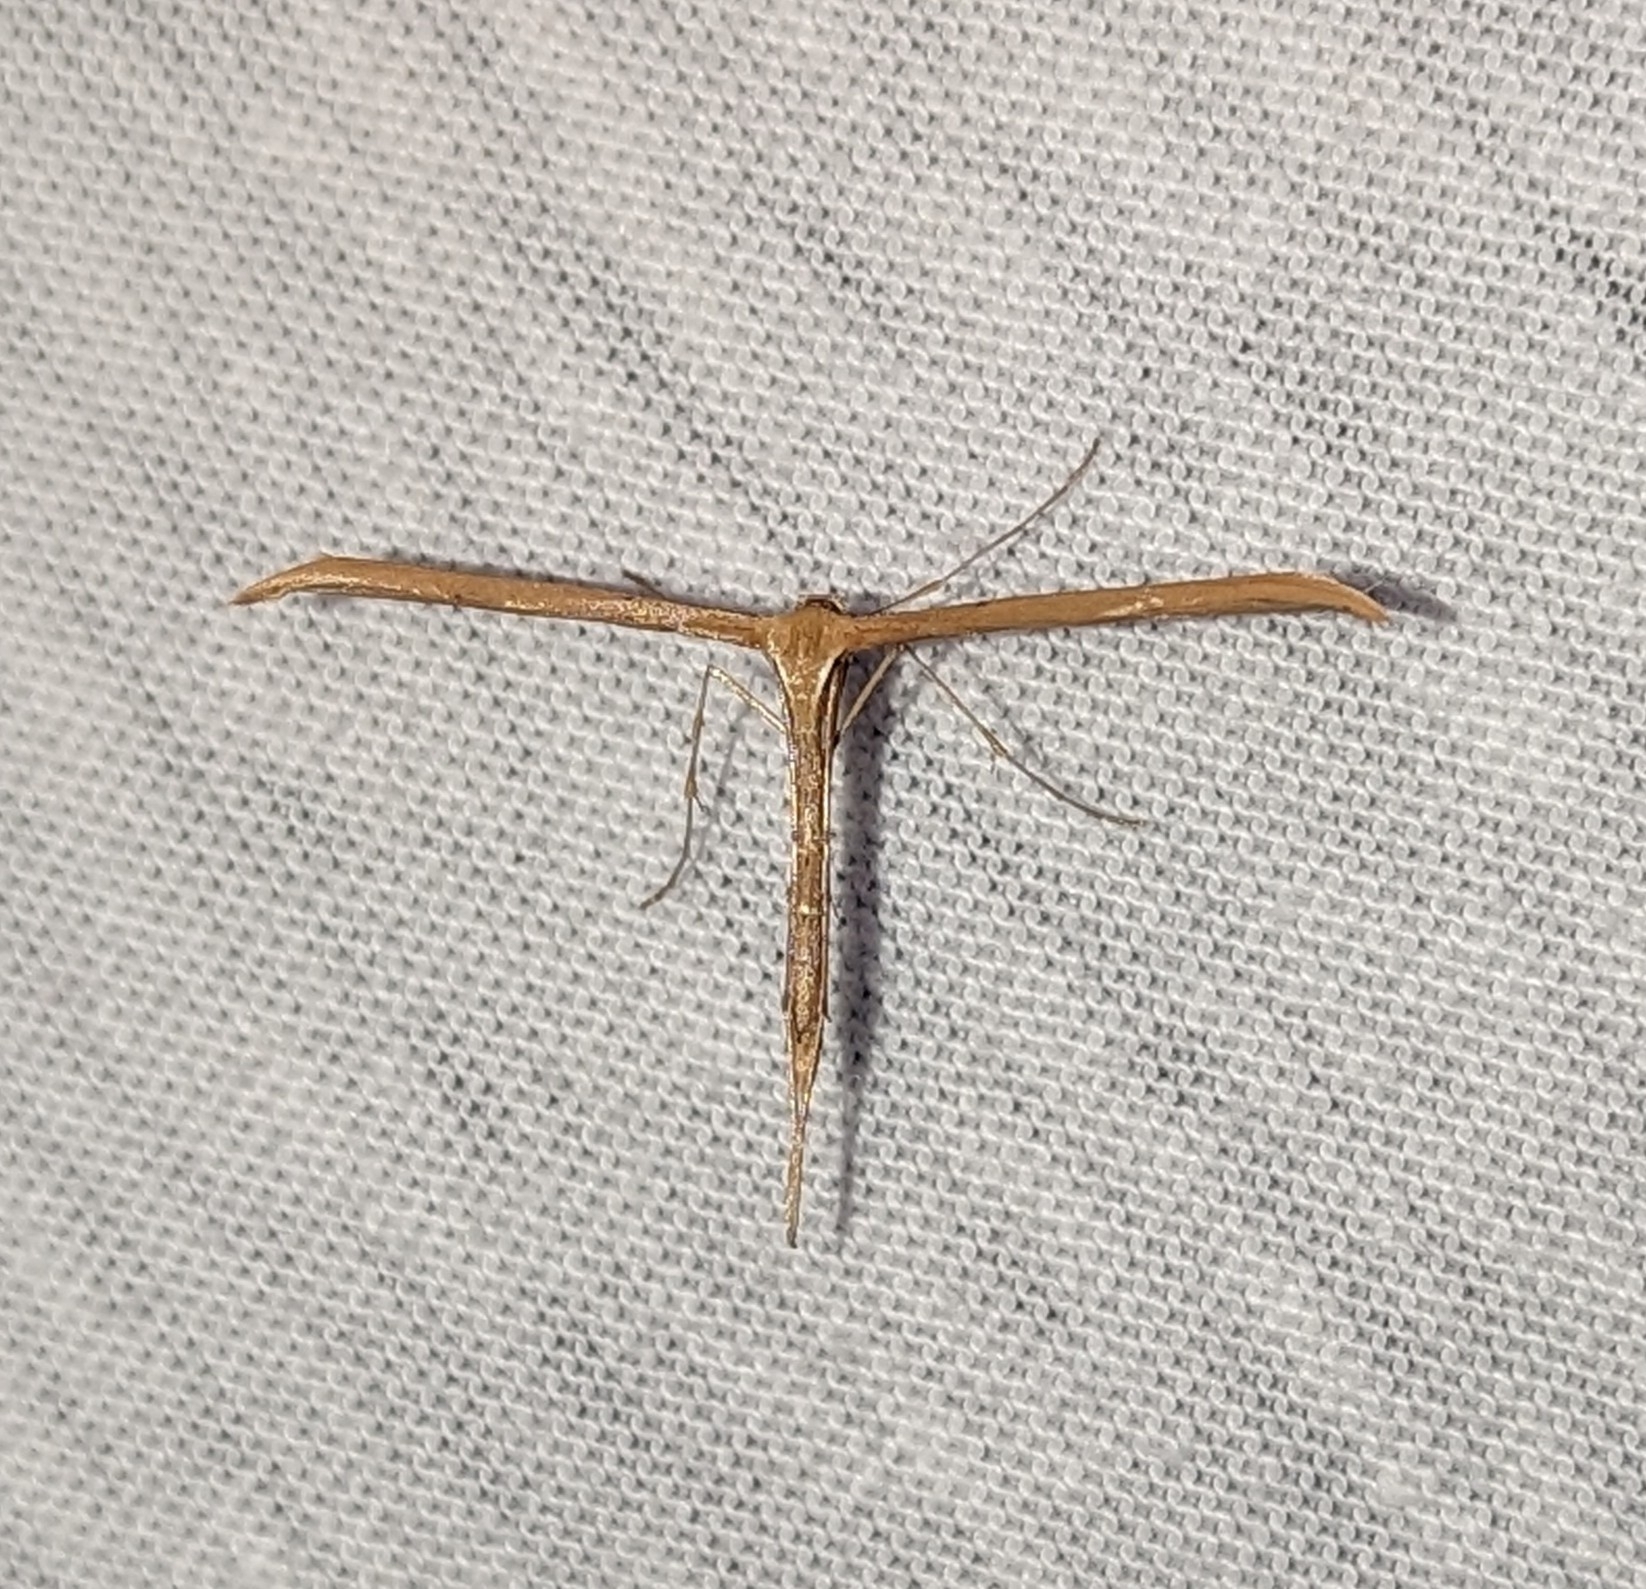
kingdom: Animalia
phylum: Arthropoda
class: Insecta
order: Lepidoptera
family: Pterophoridae
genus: Emmelina
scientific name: Emmelina monodactyla
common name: Common plume
